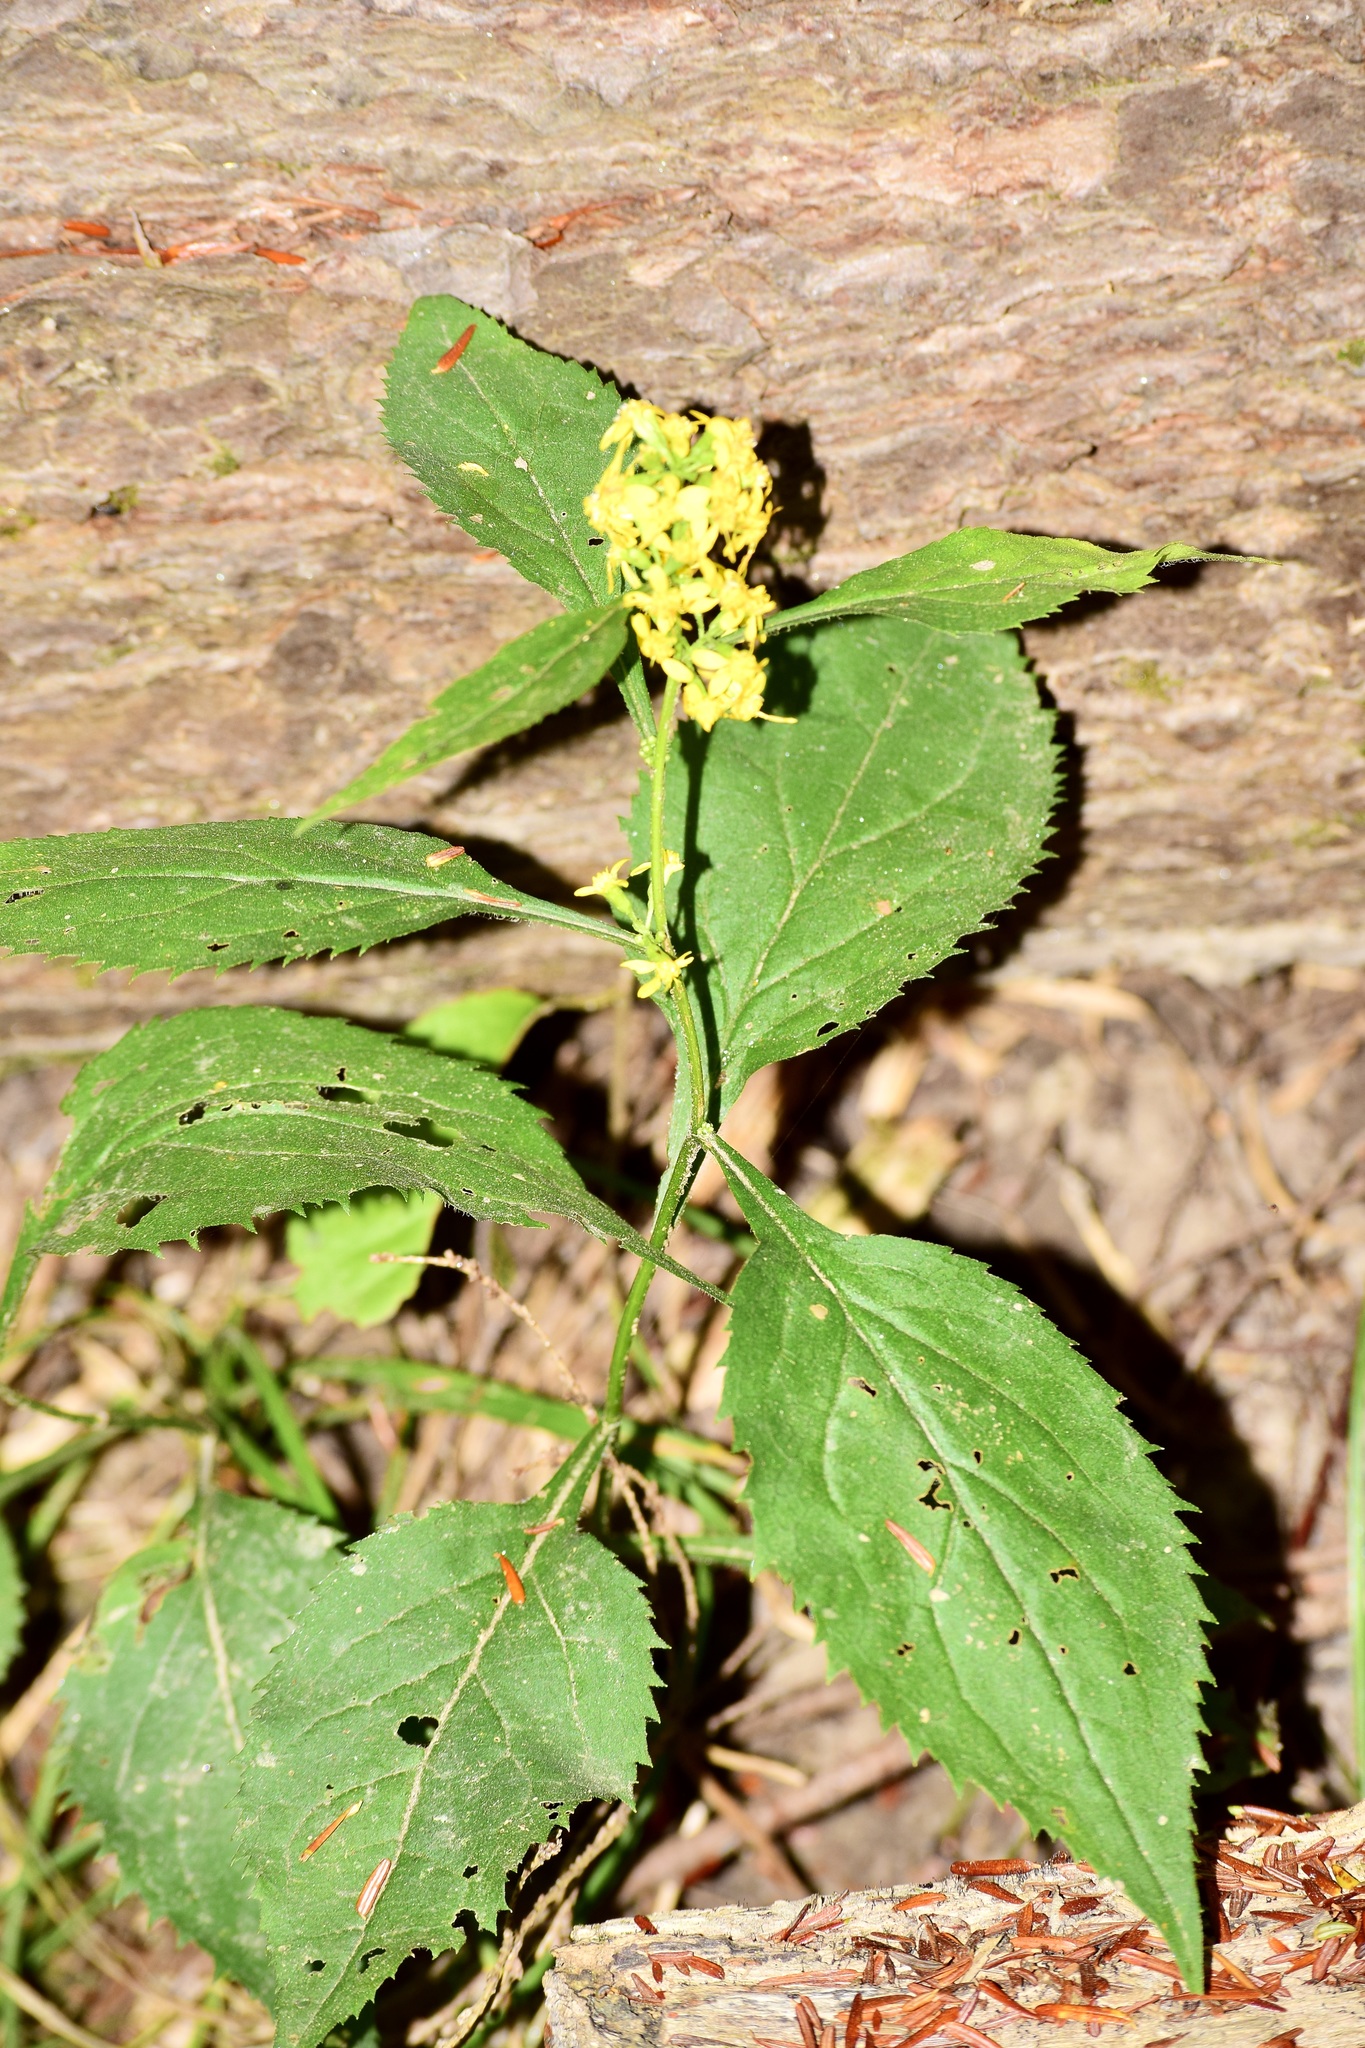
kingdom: Plantae
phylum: Tracheophyta
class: Magnoliopsida
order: Asterales
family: Asteraceae
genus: Solidago
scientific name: Solidago flexicaulis
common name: Zig-zag goldenrod
